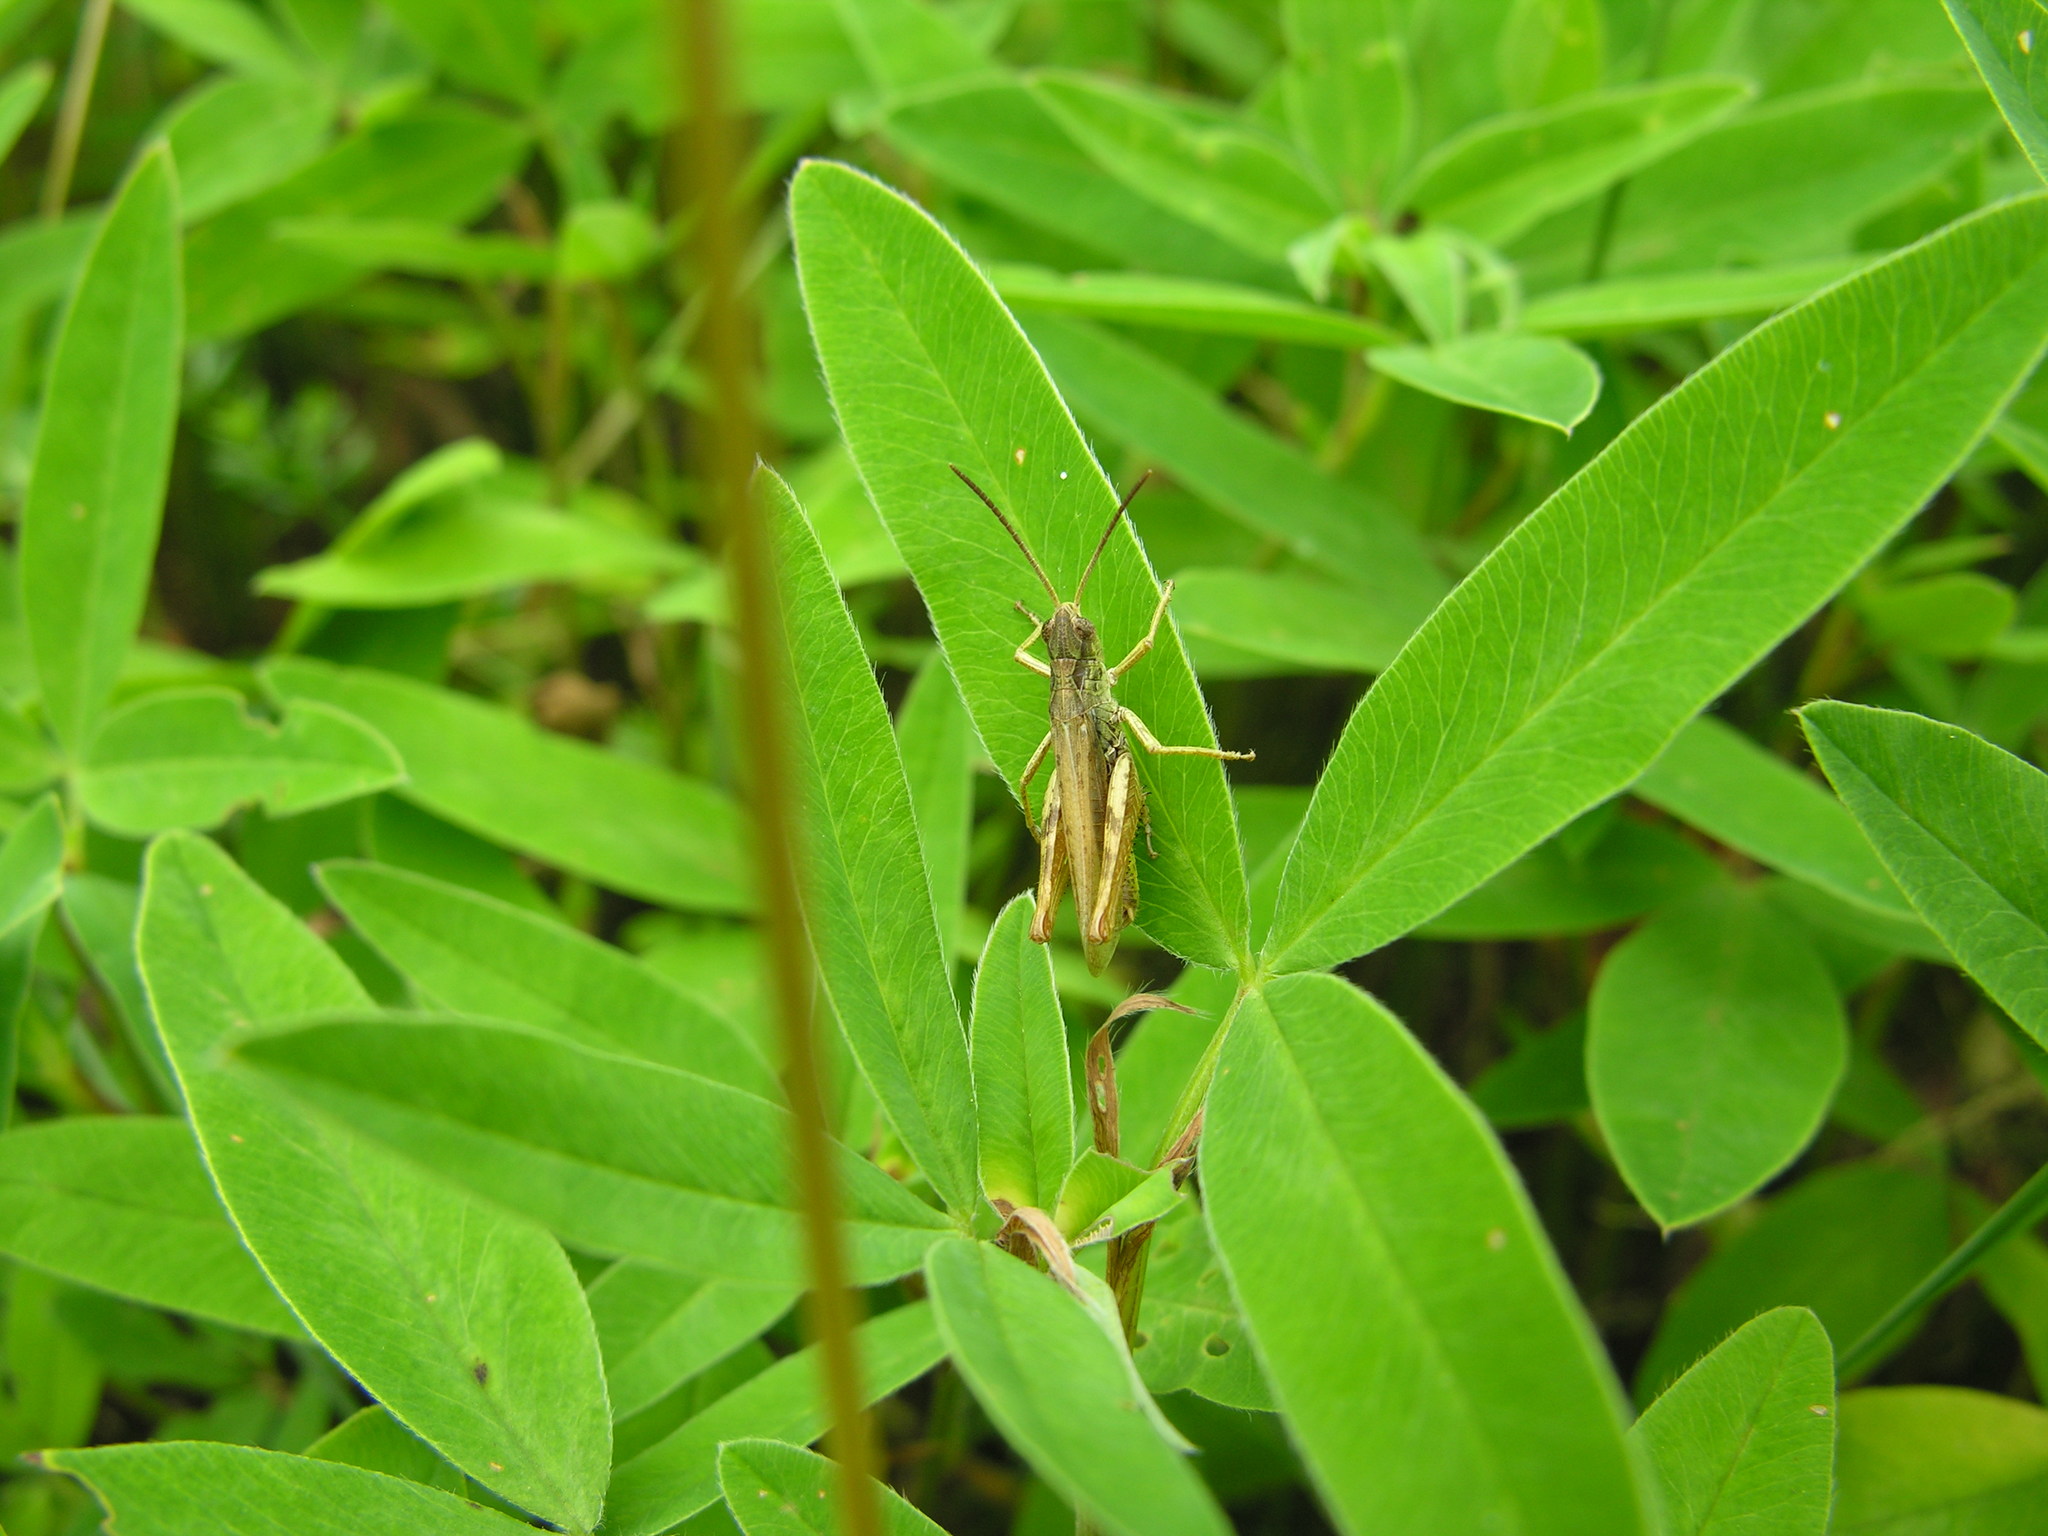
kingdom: Animalia
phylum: Arthropoda
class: Insecta
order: Orthoptera
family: Acrididae
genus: Chorthippus
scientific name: Chorthippus apricarius
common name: Upland field grasshopper
